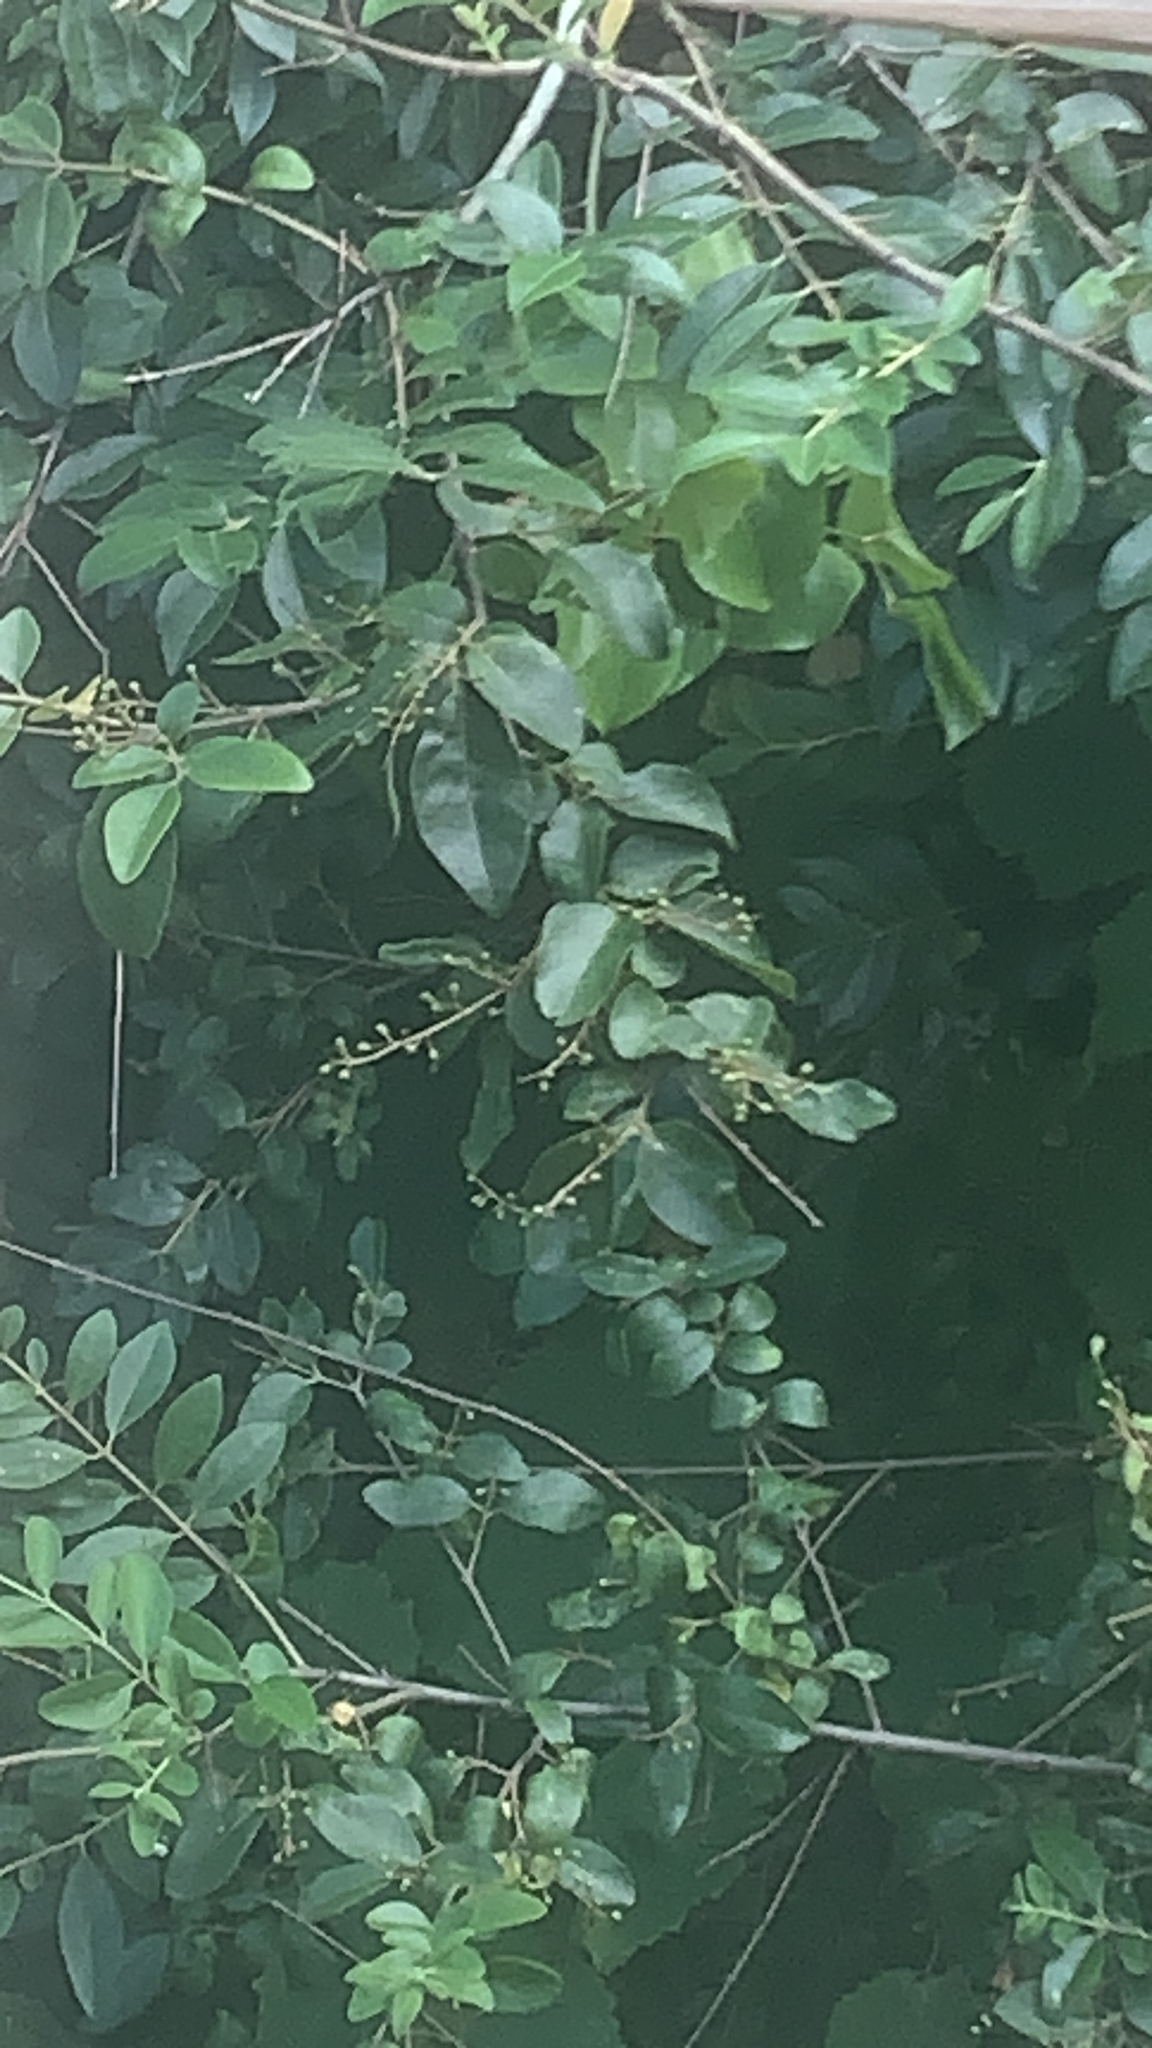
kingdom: Plantae
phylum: Tracheophyta
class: Magnoliopsida
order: Lamiales
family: Oleaceae
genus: Ligustrum
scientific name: Ligustrum sinense
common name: Chinese privet
